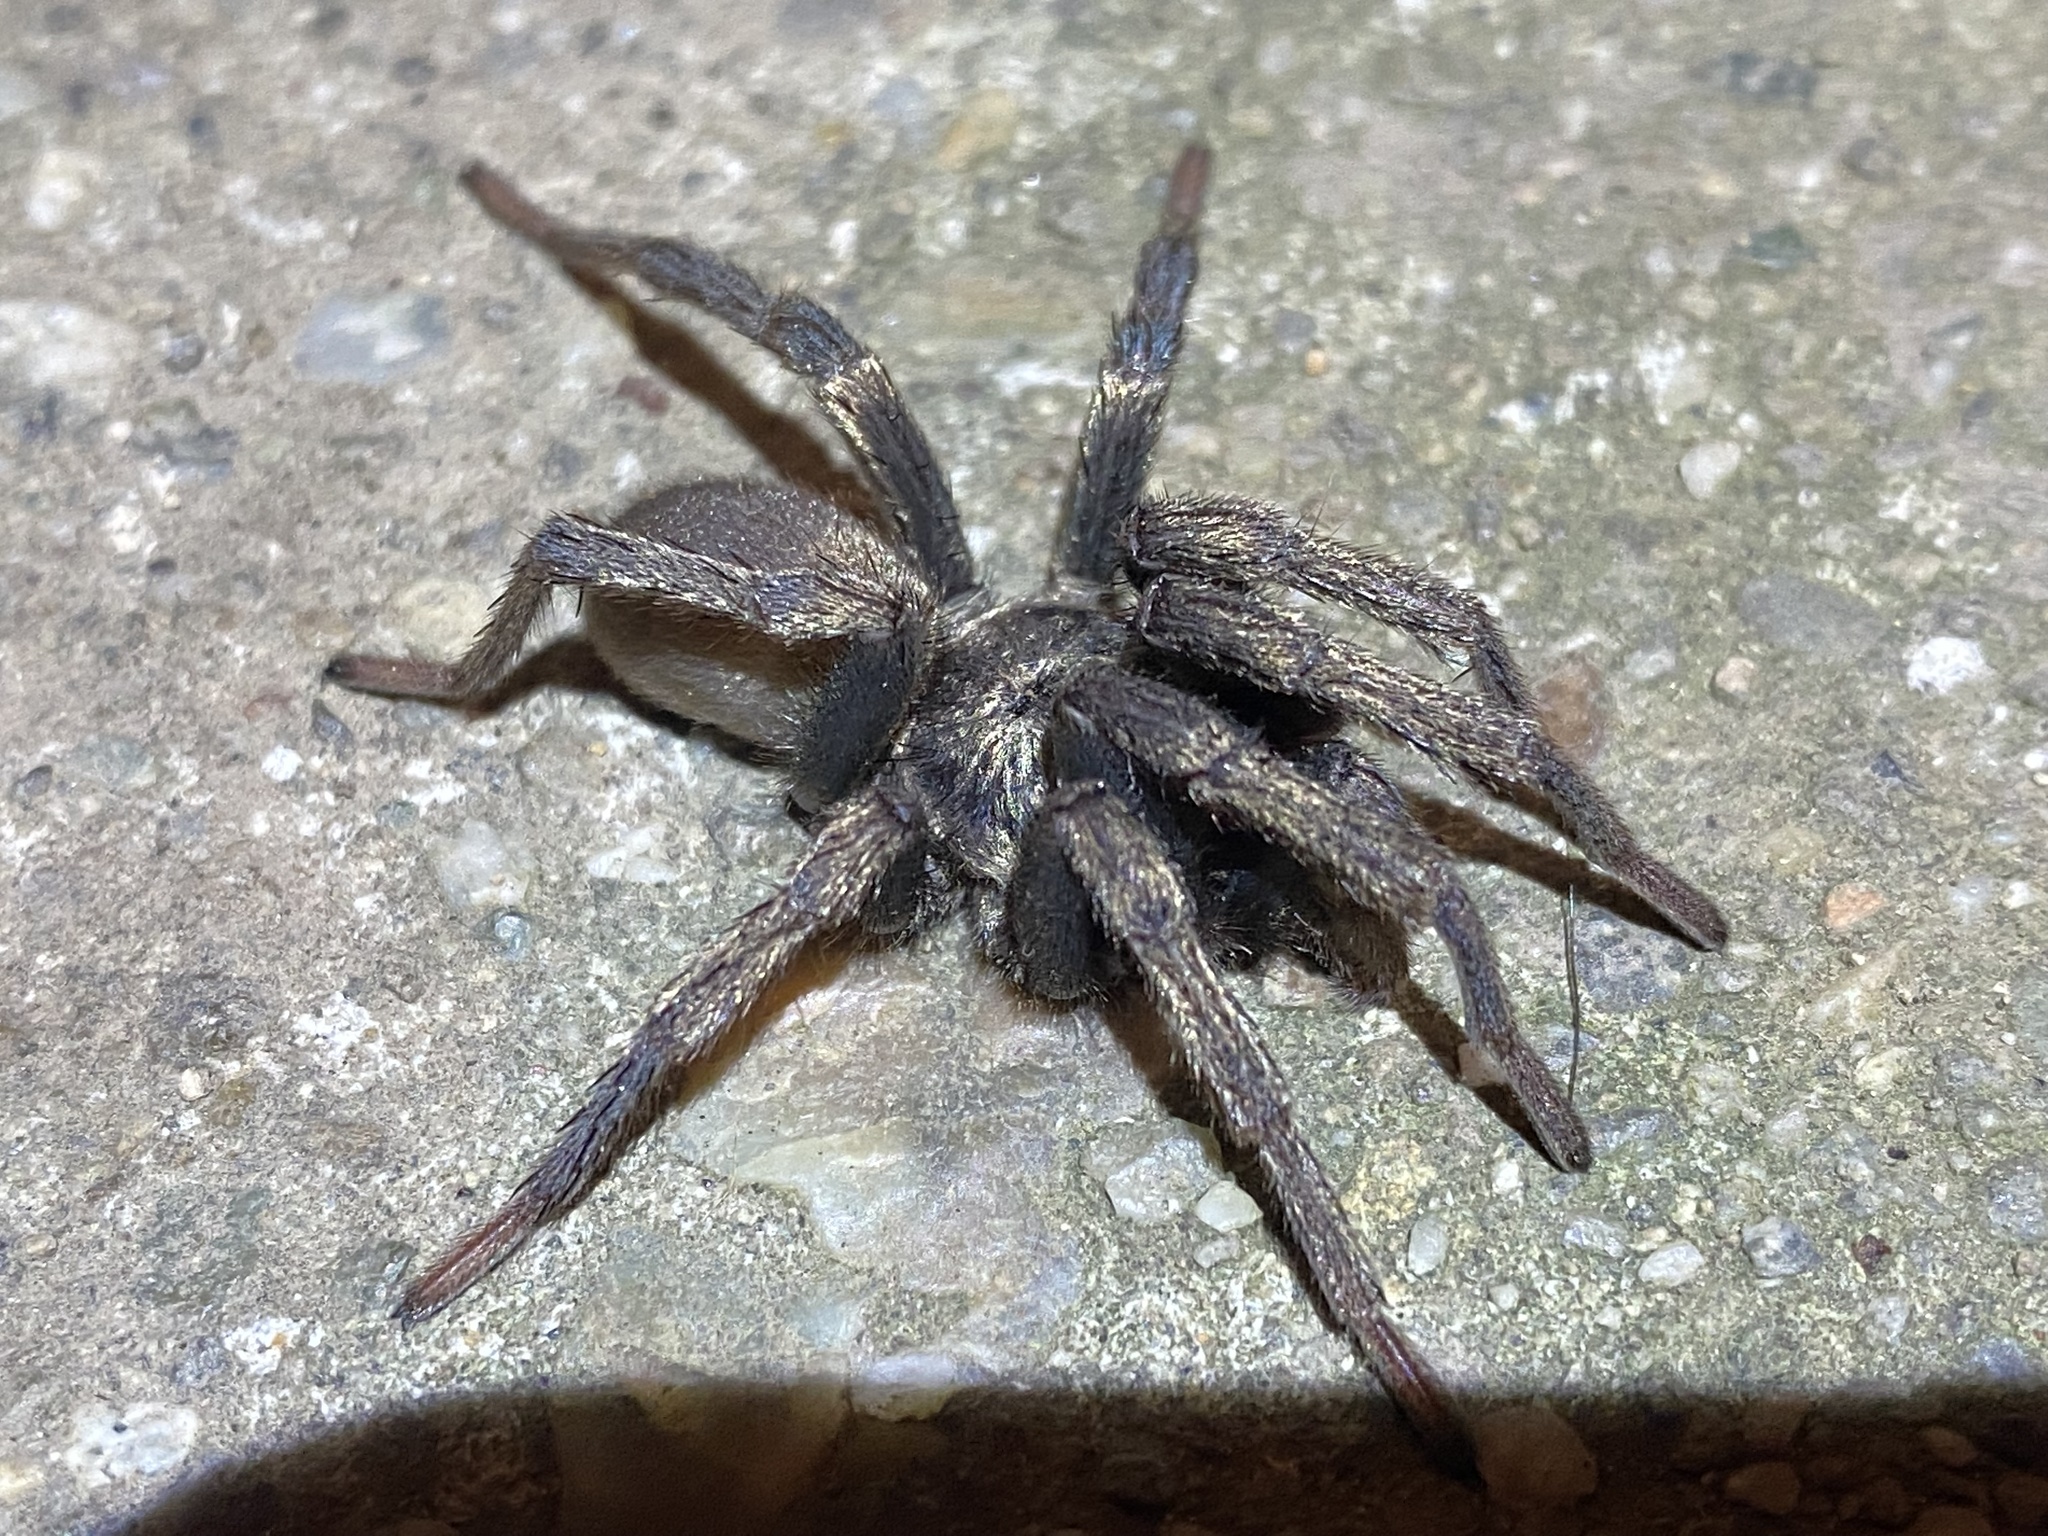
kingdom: Animalia
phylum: Arthropoda
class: Arachnida
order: Araneae
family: Nemesiidae
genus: Calisoga
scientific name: Calisoga longitarsis
